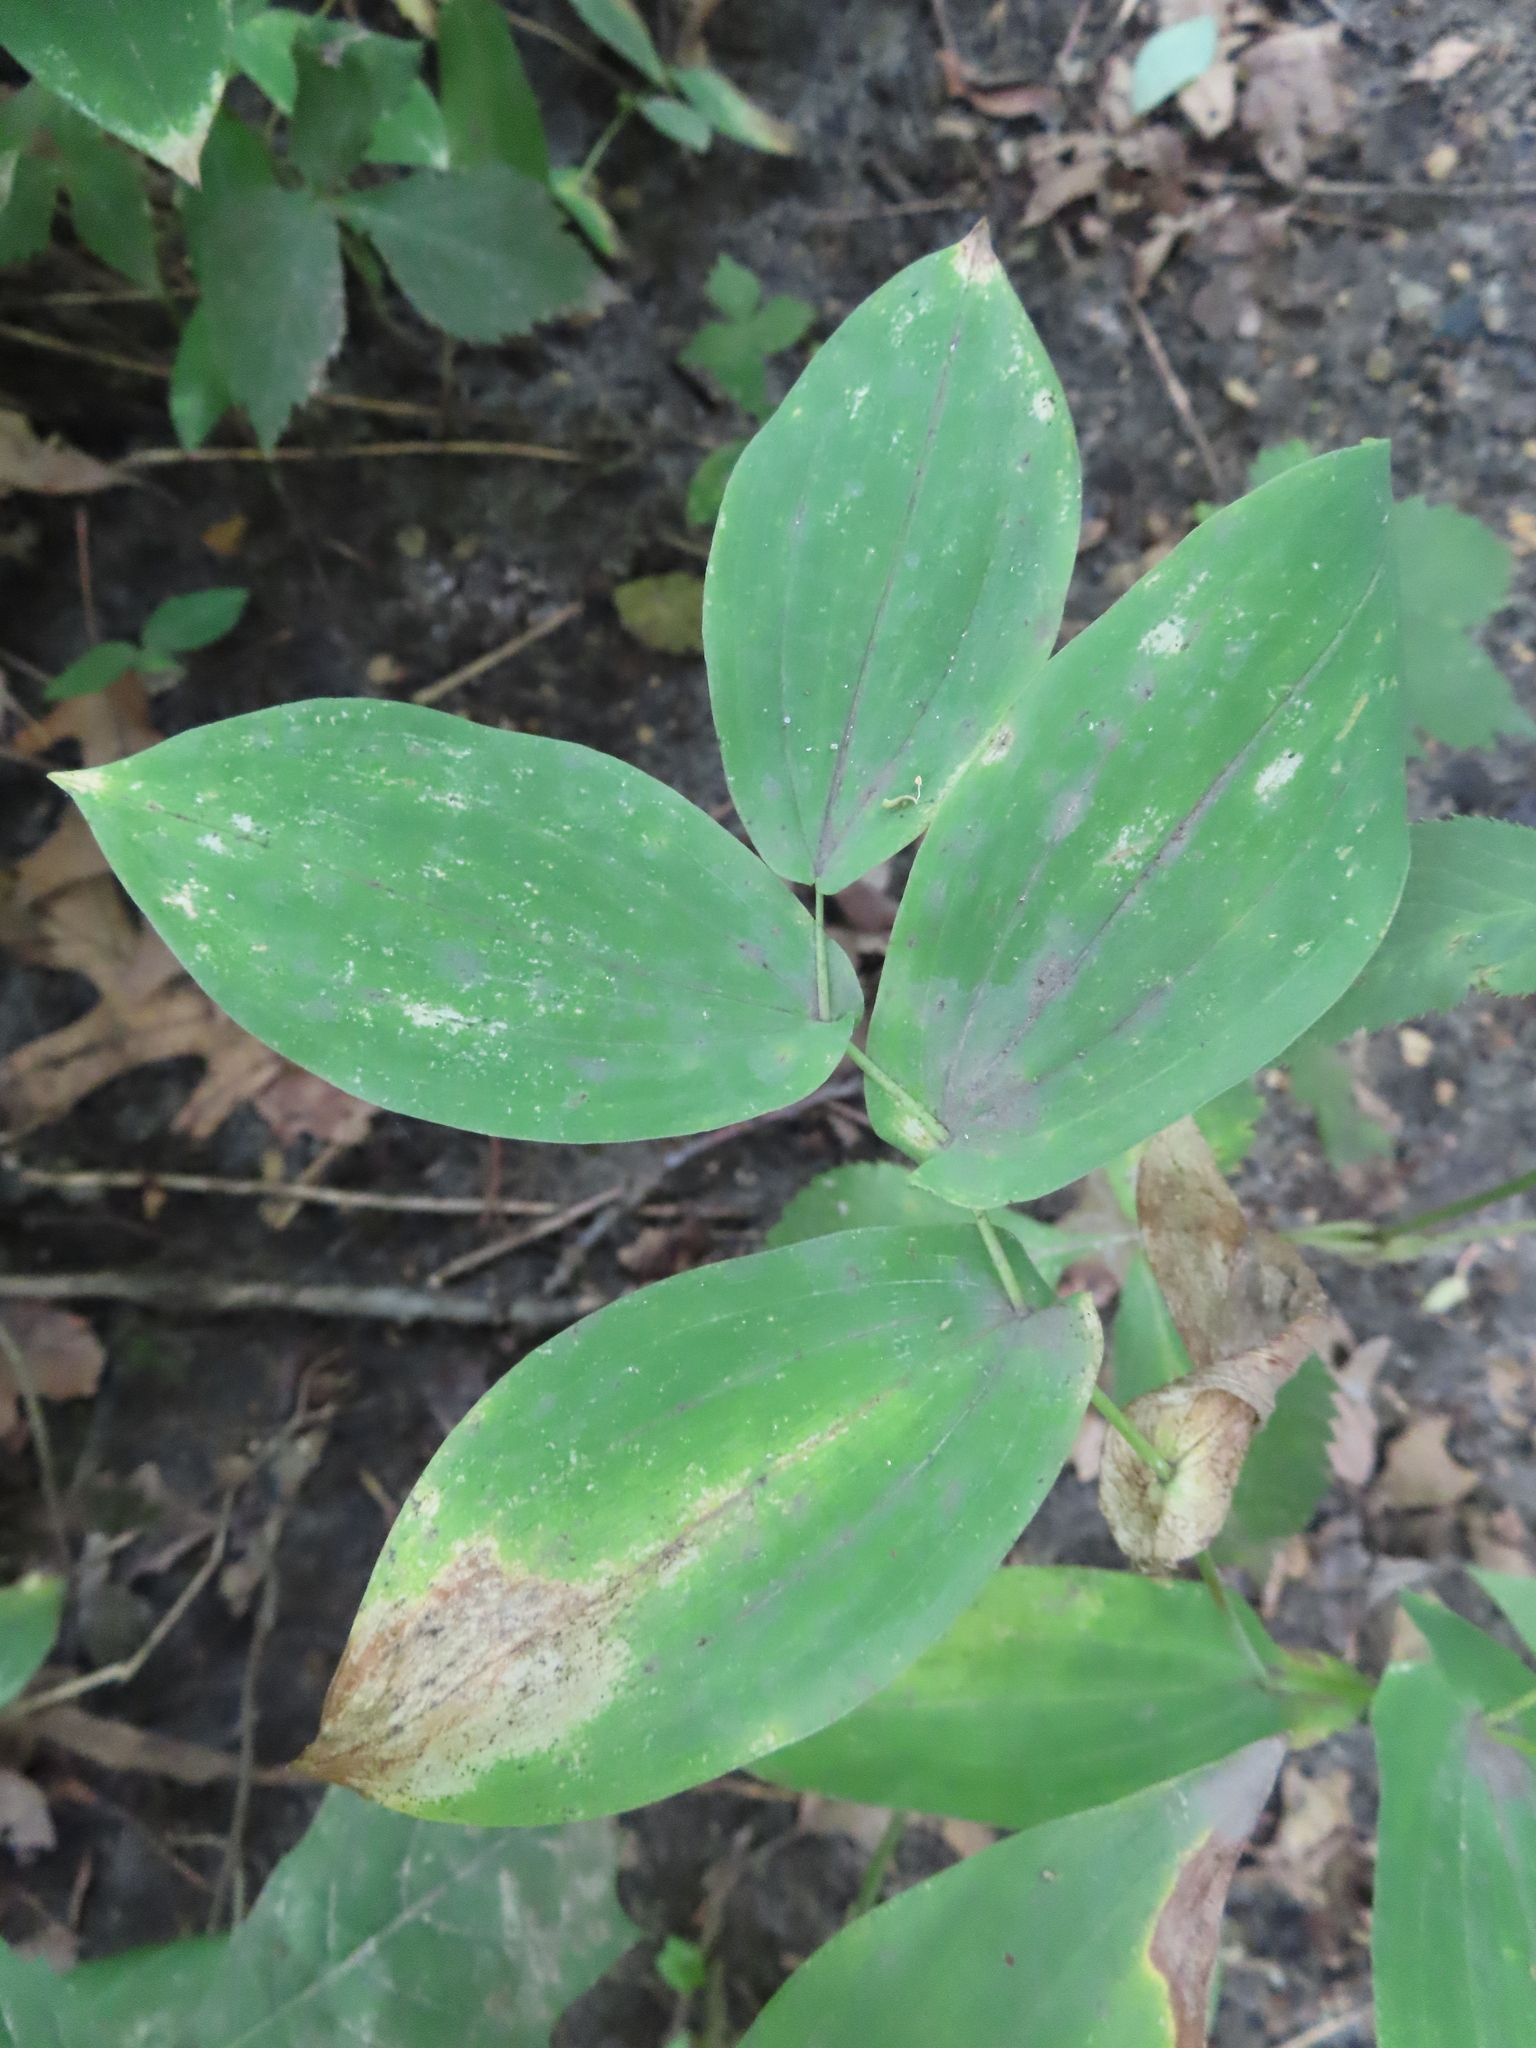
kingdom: Plantae
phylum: Tracheophyta
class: Liliopsida
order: Liliales
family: Colchicaceae
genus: Uvularia
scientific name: Uvularia grandiflora
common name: Bellwort
